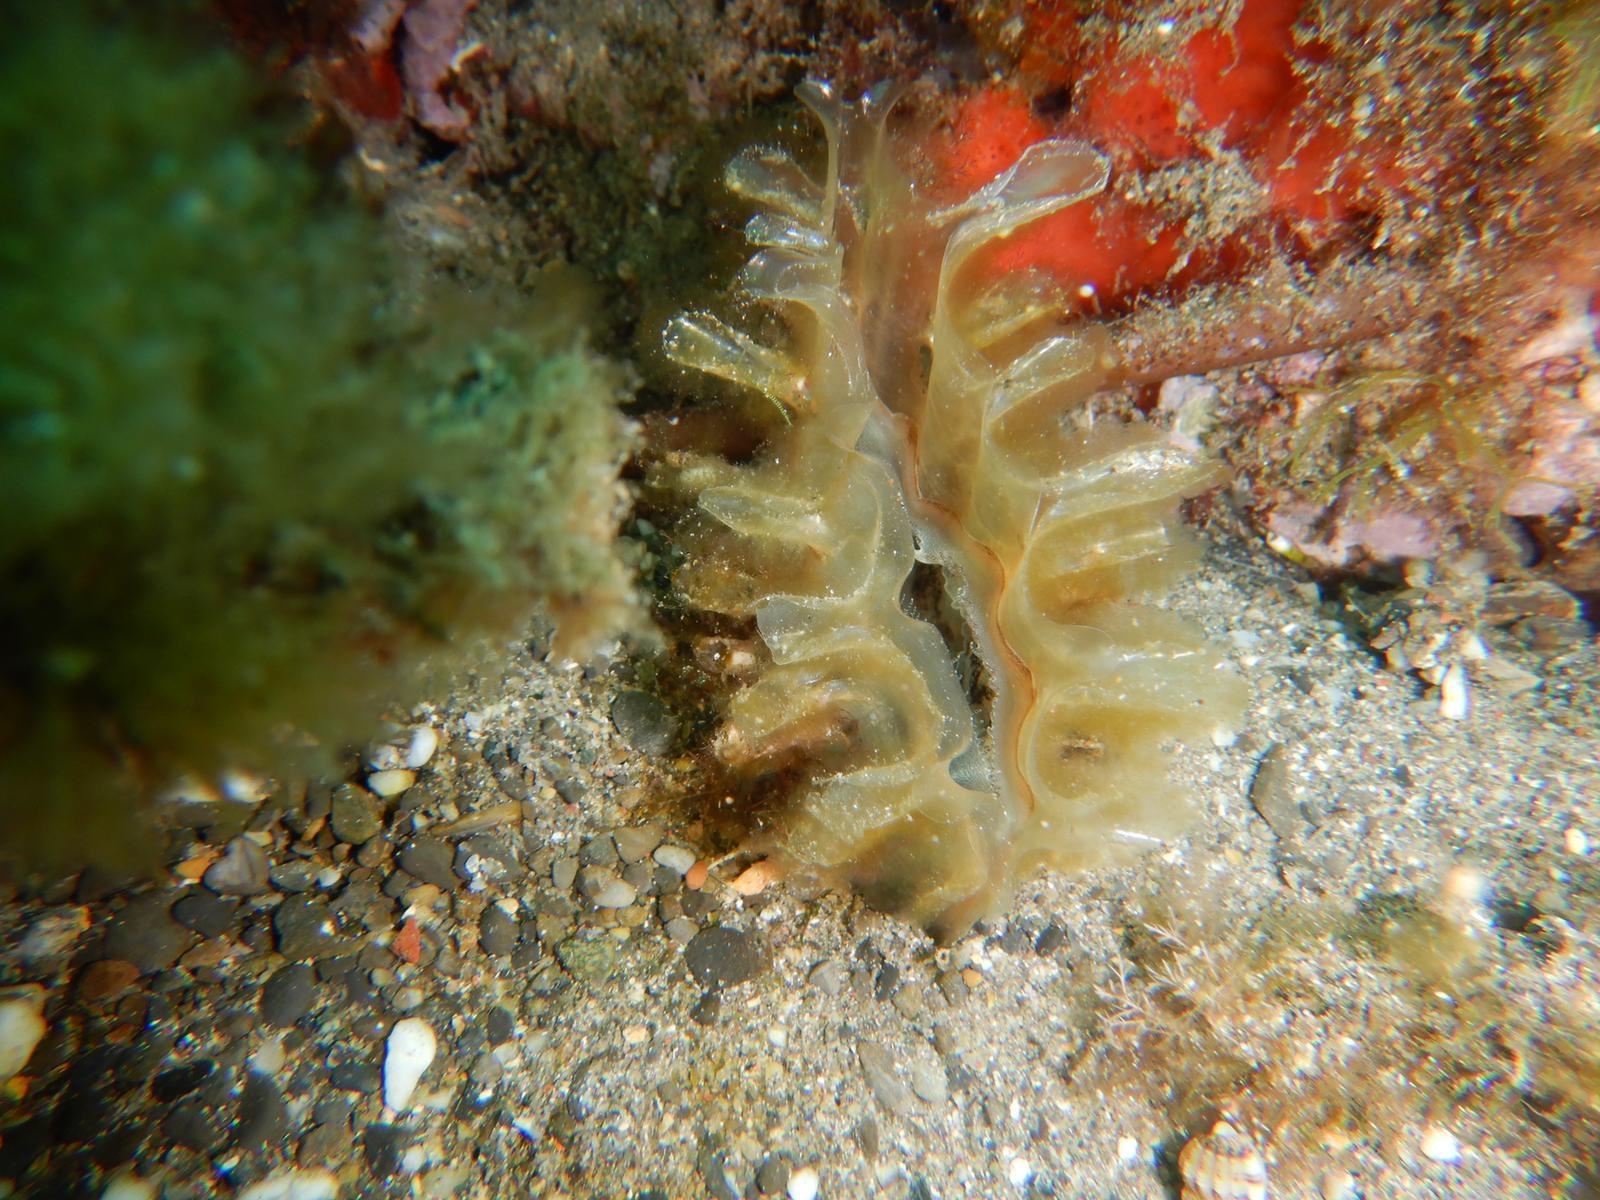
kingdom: Animalia
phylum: Mollusca
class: Bivalvia
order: Ostreida
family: Pinnidae
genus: Pinna
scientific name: Pinna rudis
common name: Rough penshell
